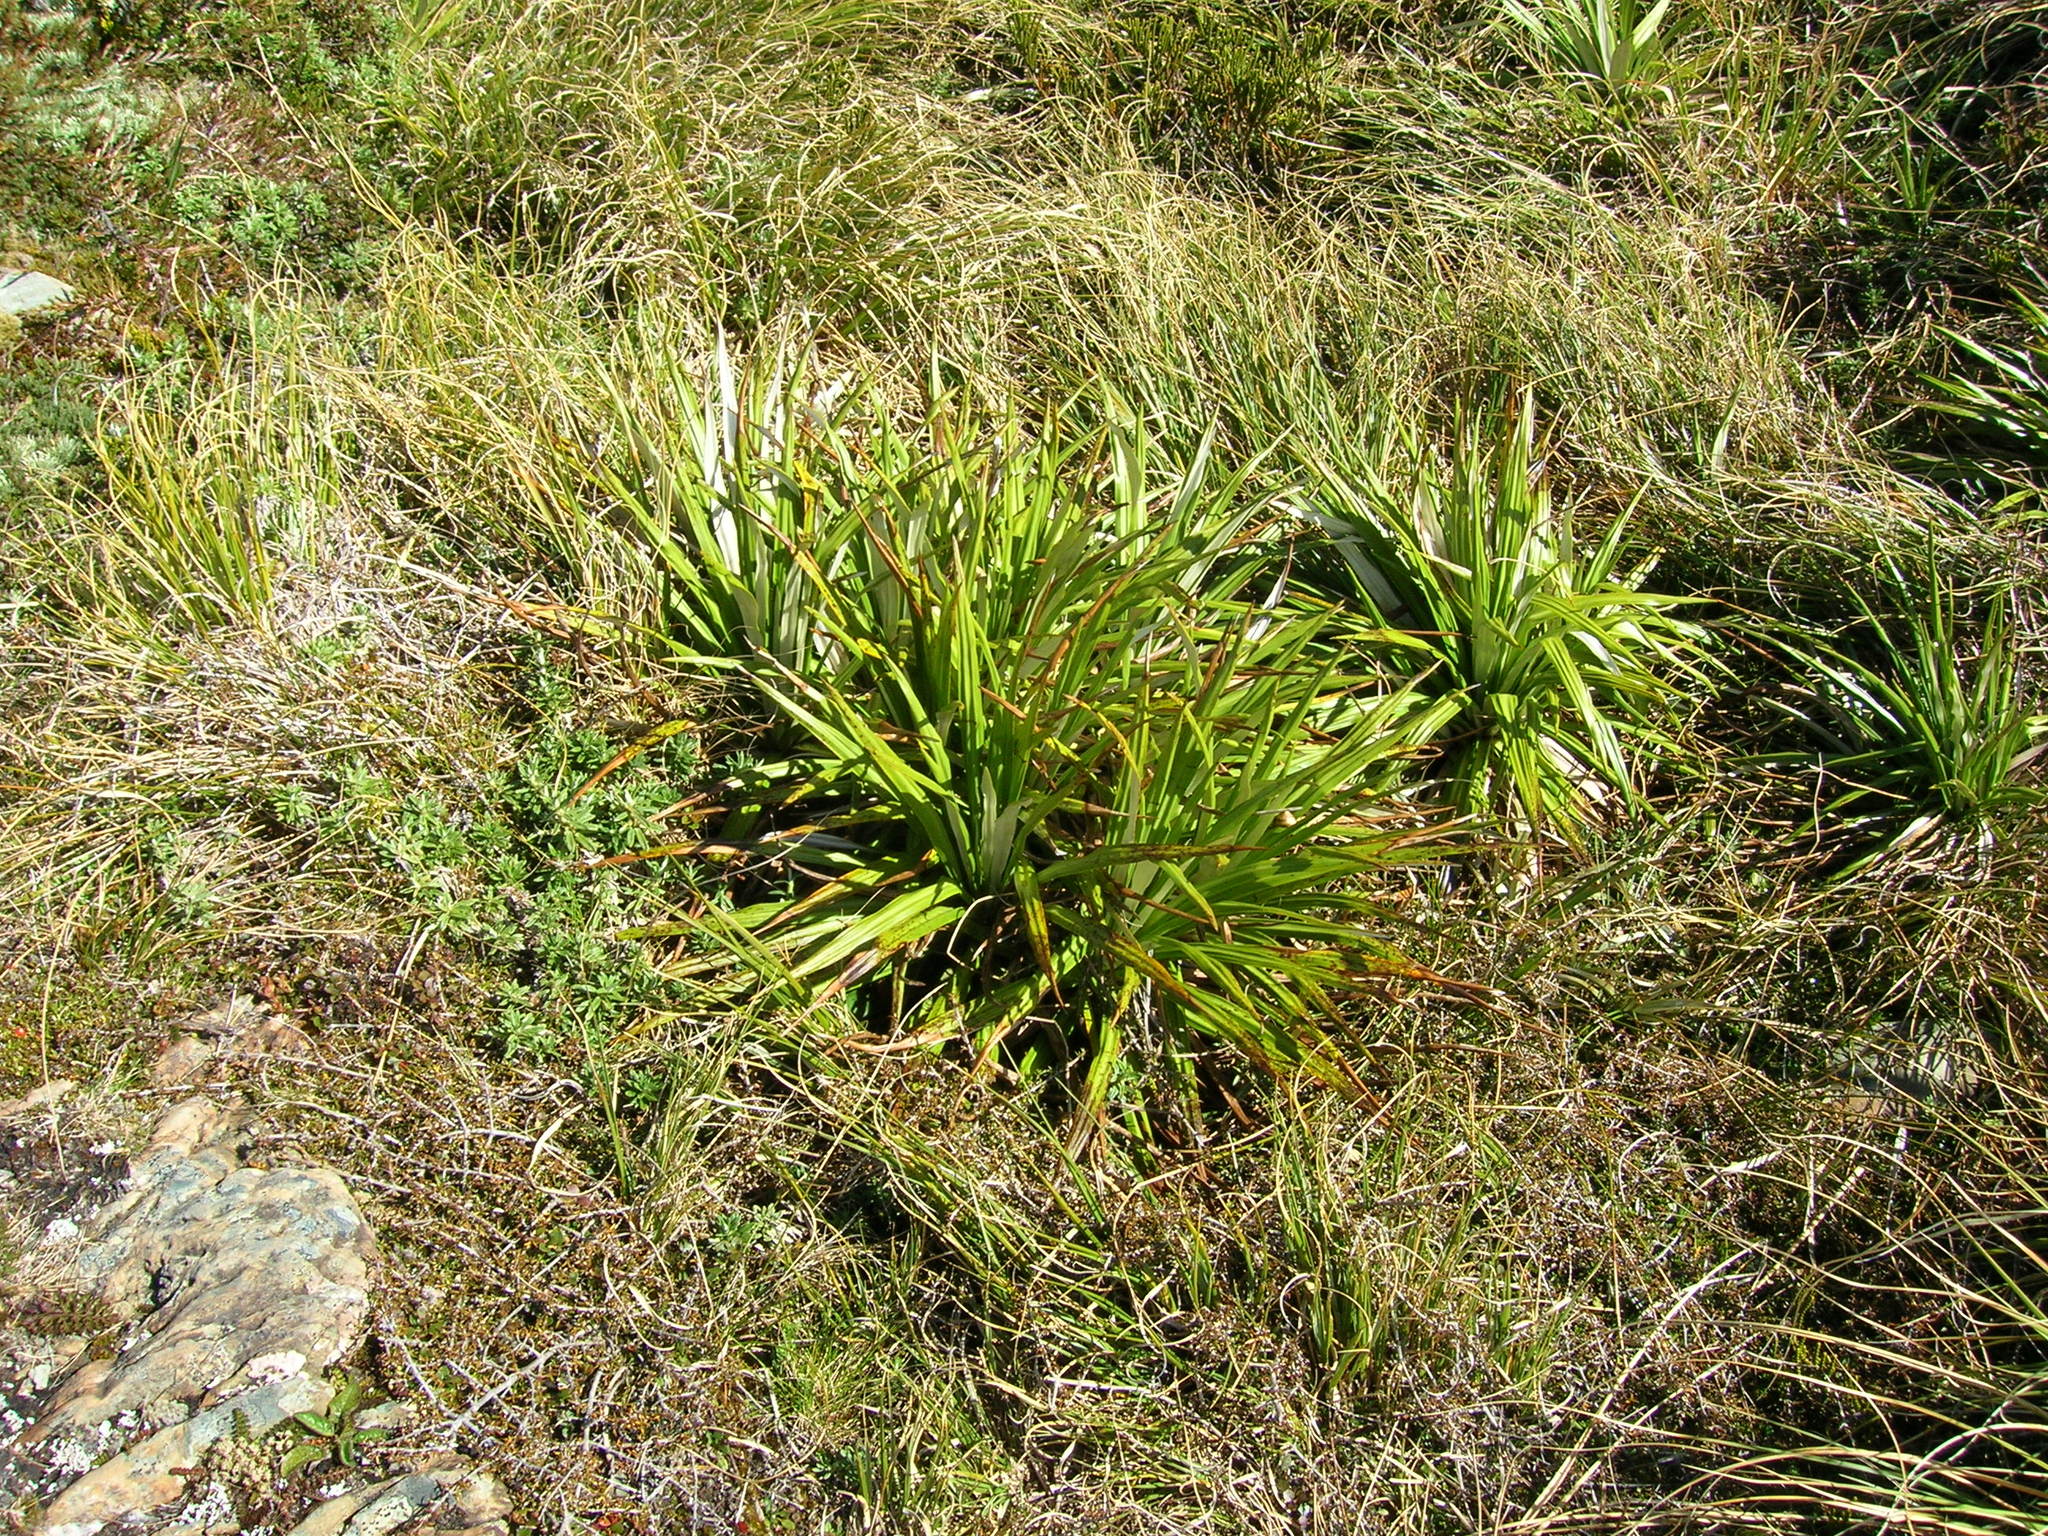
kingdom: Plantae
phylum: Tracheophyta
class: Magnoliopsida
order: Asterales
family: Asteraceae
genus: Celmisia
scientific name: Celmisia petriei
